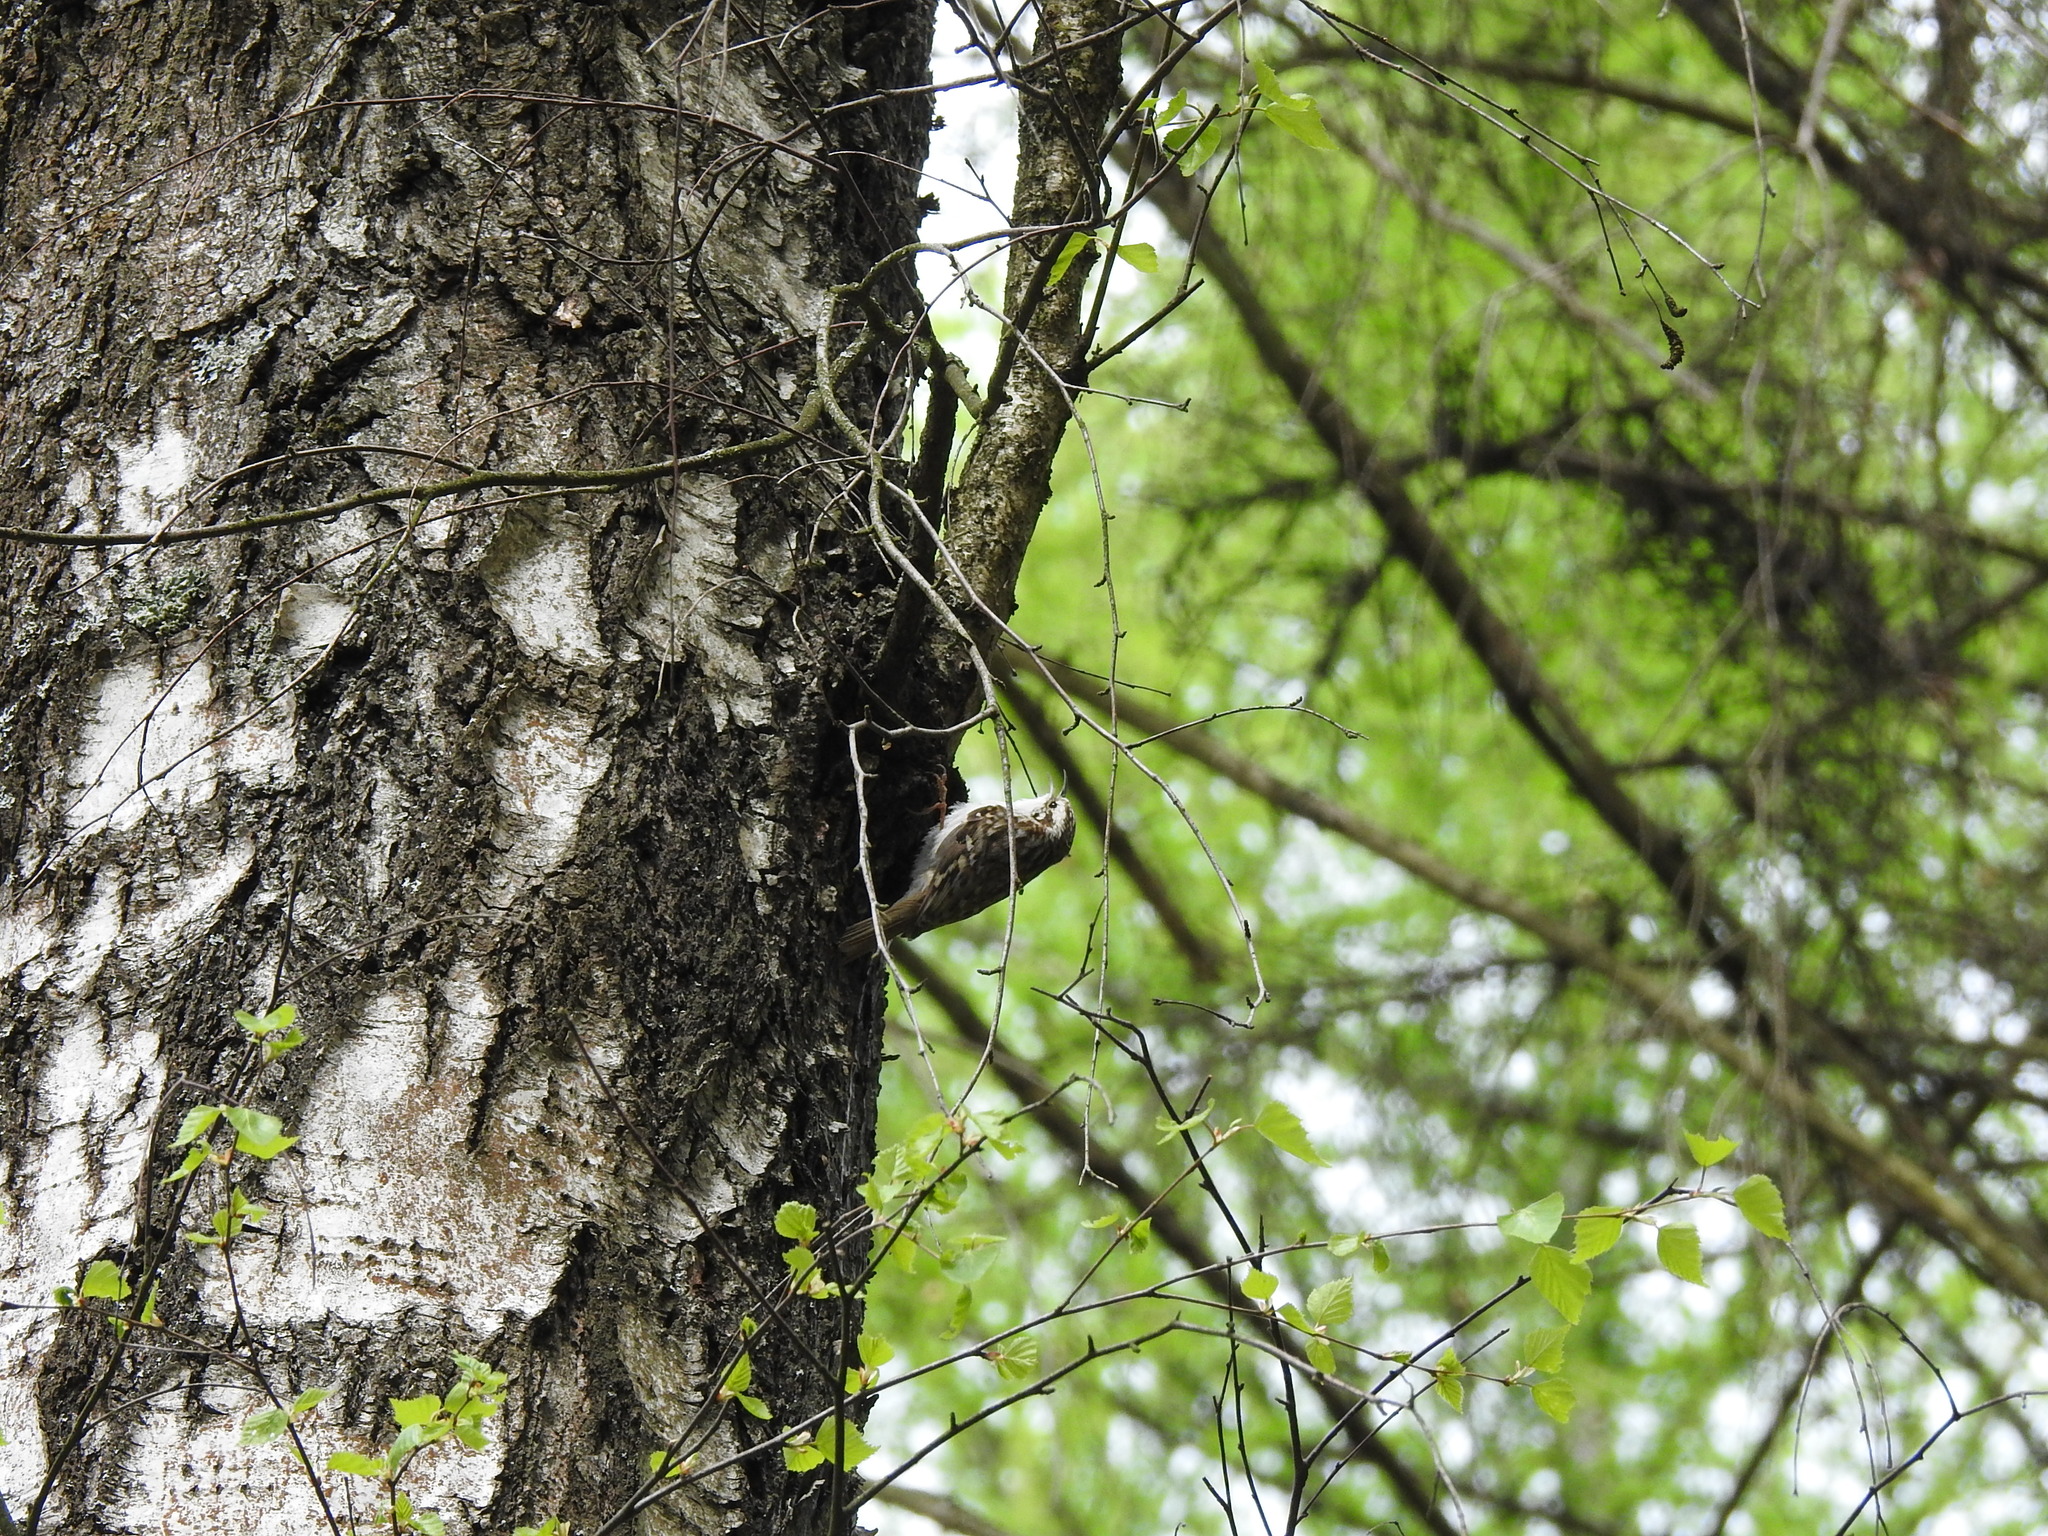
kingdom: Animalia
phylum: Chordata
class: Aves
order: Passeriformes
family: Certhiidae
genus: Certhia
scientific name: Certhia familiaris
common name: Eurasian treecreeper
